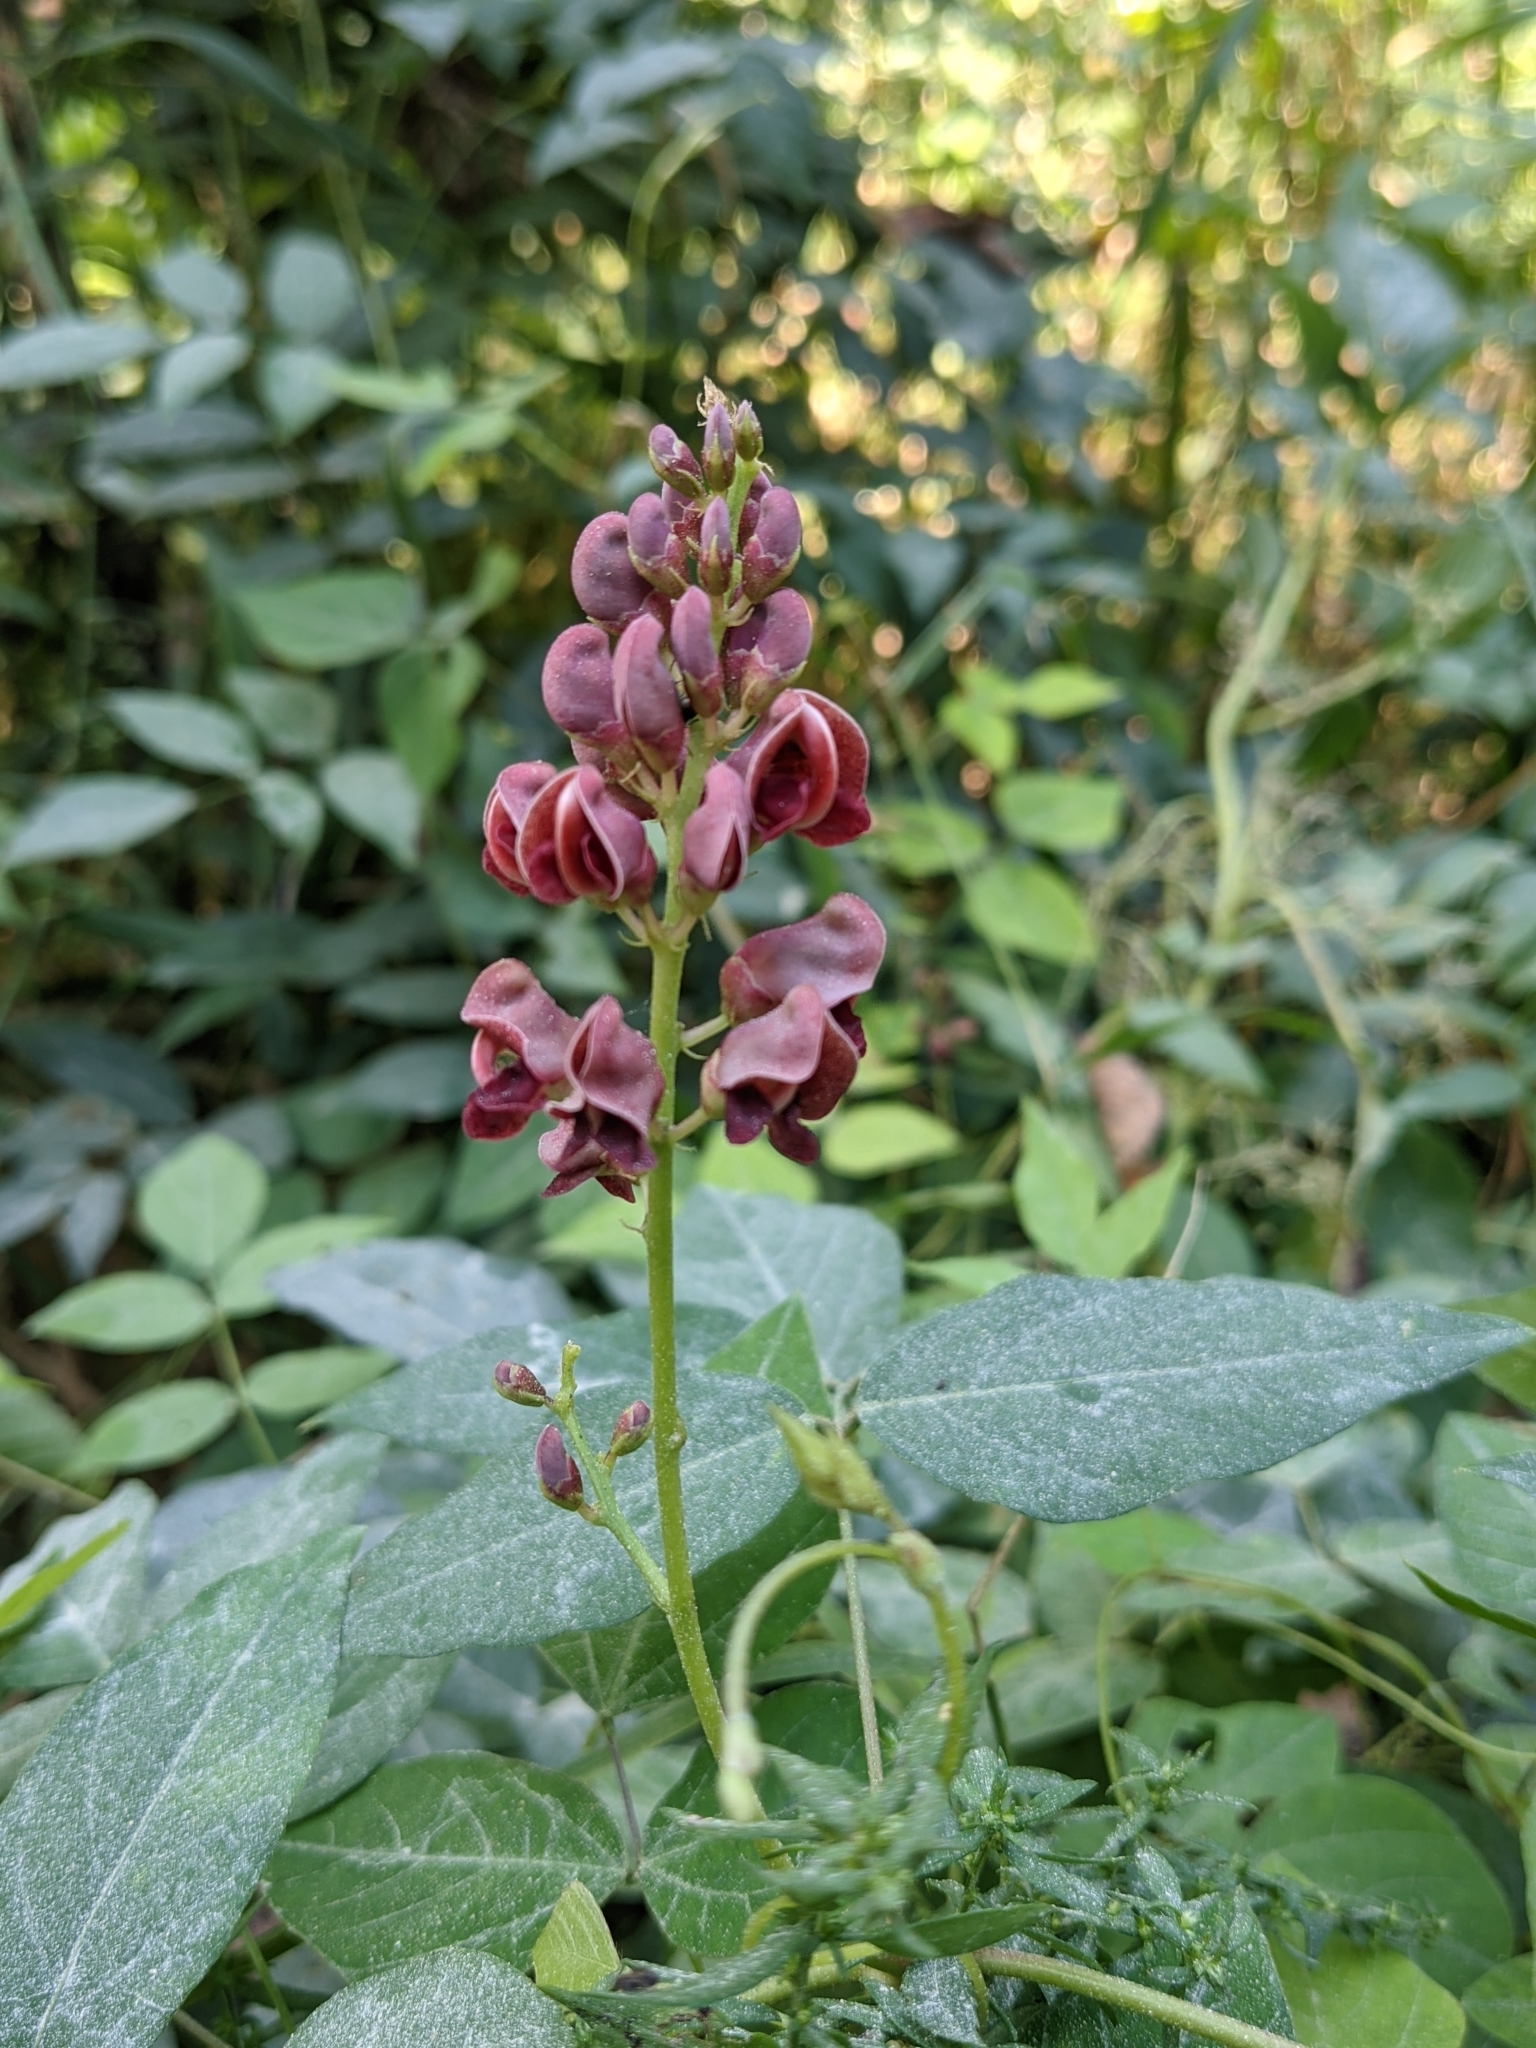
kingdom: Plantae
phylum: Tracheophyta
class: Magnoliopsida
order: Fabales
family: Fabaceae
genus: Apios
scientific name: Apios americana
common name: American potato-bean
